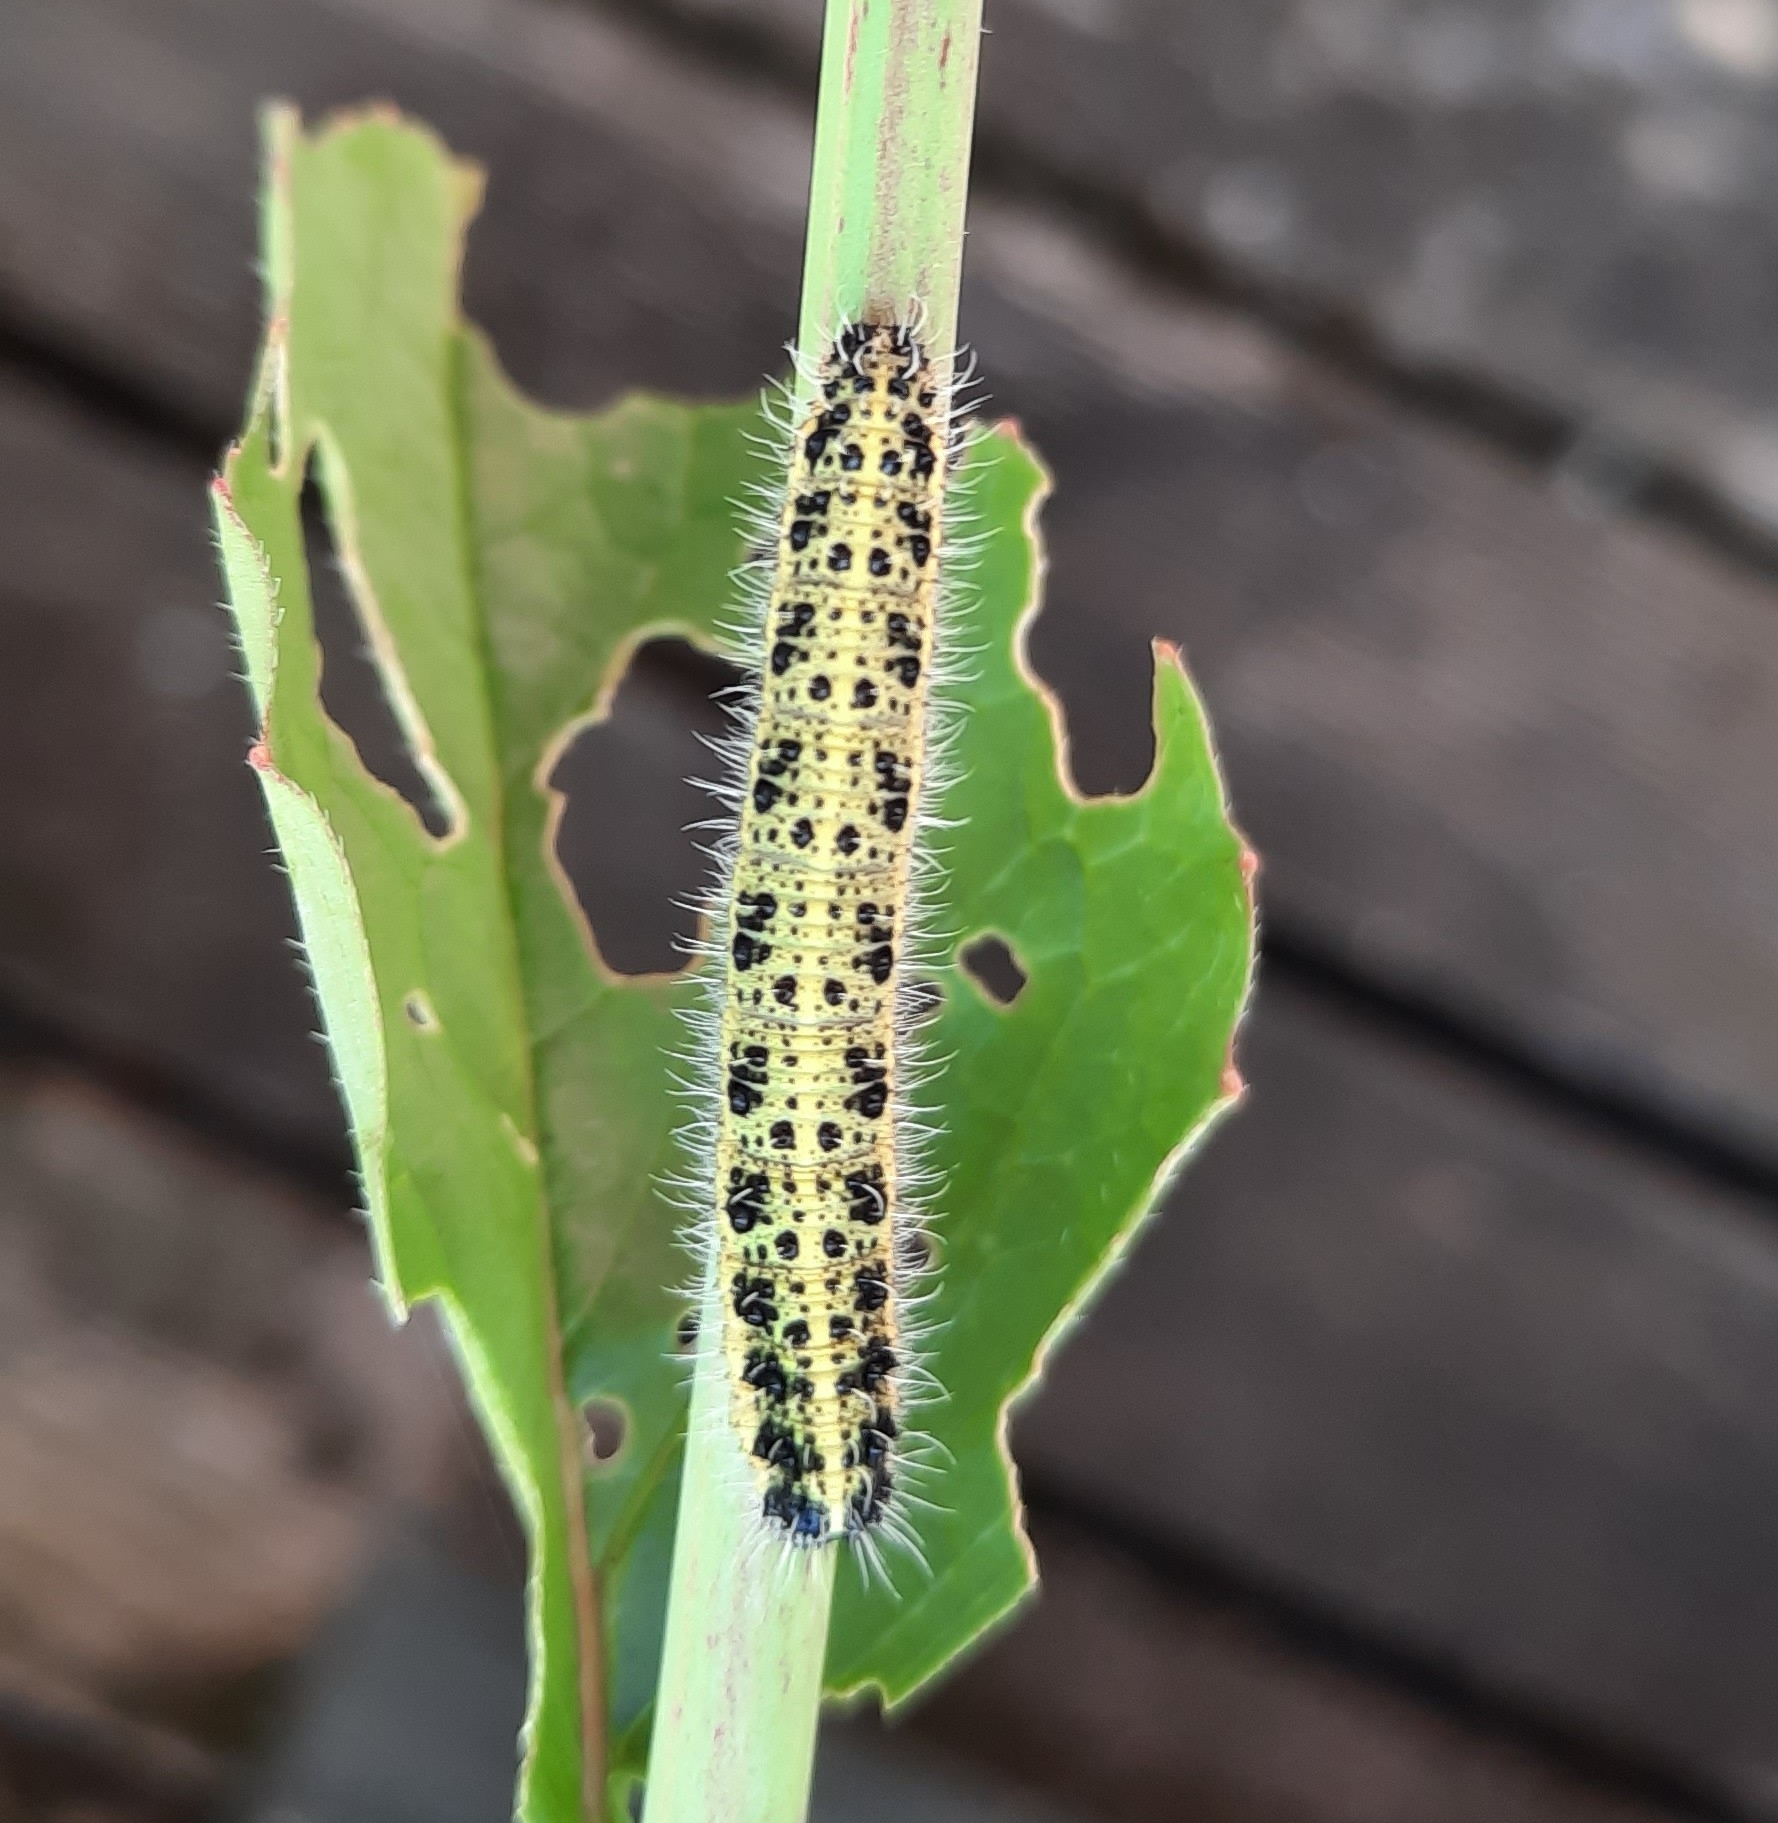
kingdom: Animalia
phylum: Arthropoda
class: Insecta
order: Lepidoptera
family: Pieridae
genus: Pieris
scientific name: Pieris brassicae
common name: Large white
